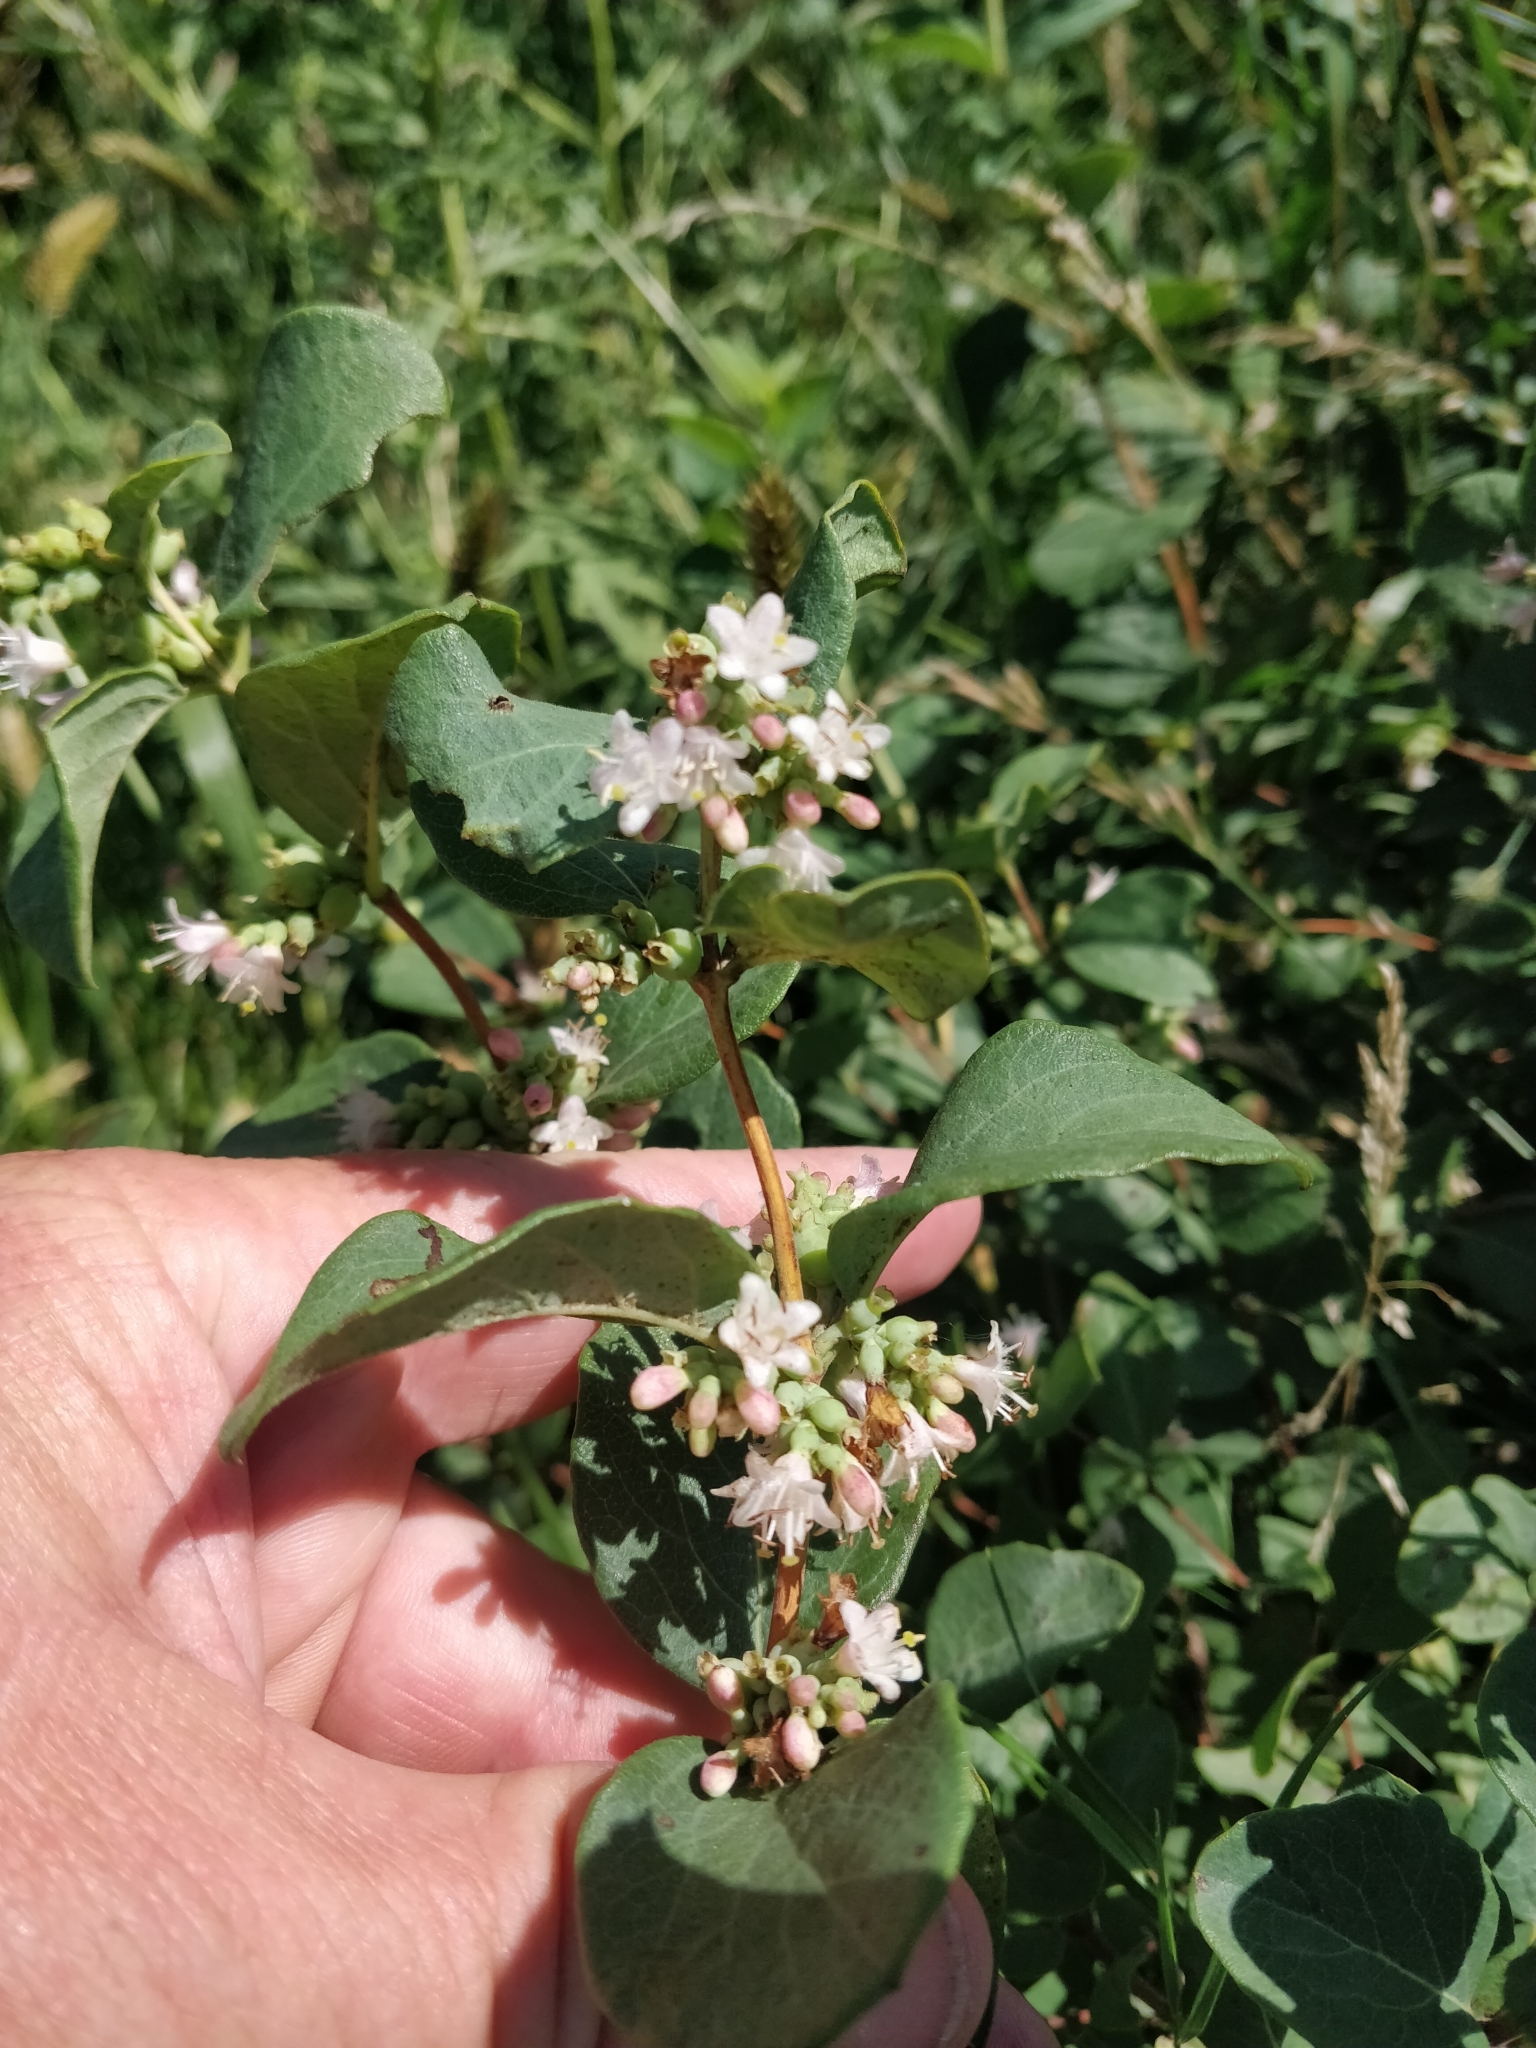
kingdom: Plantae
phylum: Tracheophyta
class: Magnoliopsida
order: Dipsacales
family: Caprifoliaceae
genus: Symphoricarpos
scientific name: Symphoricarpos occidentalis
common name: Wolfberry
